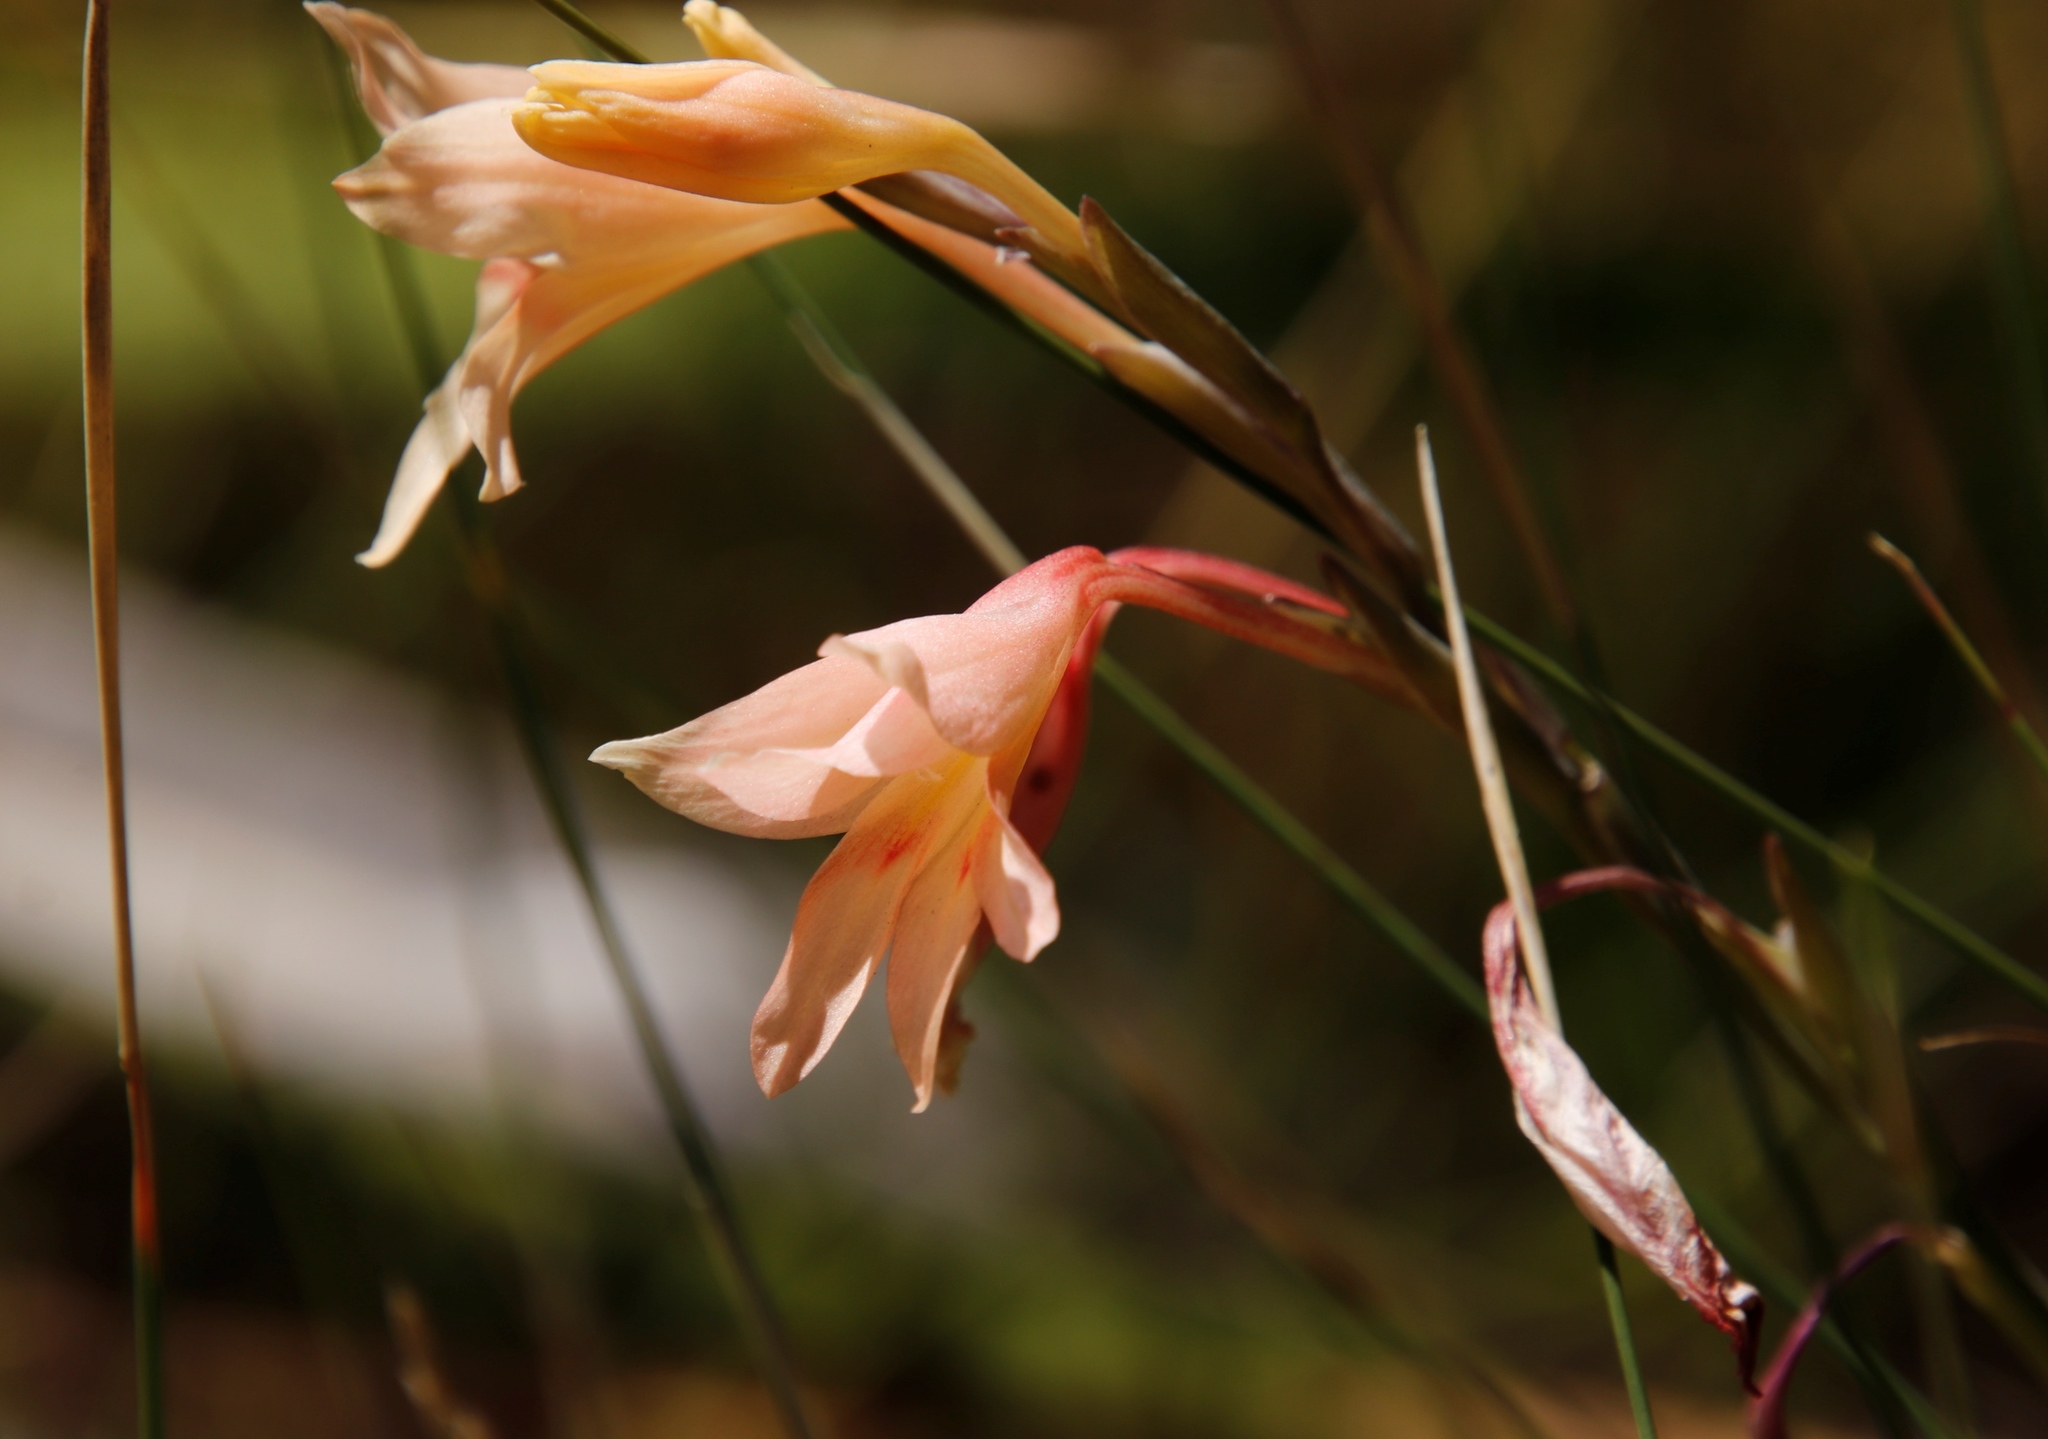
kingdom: Plantae
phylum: Tracheophyta
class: Liliopsida
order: Asparagales
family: Iridaceae
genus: Gladiolus
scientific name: Gladiolus monticola
